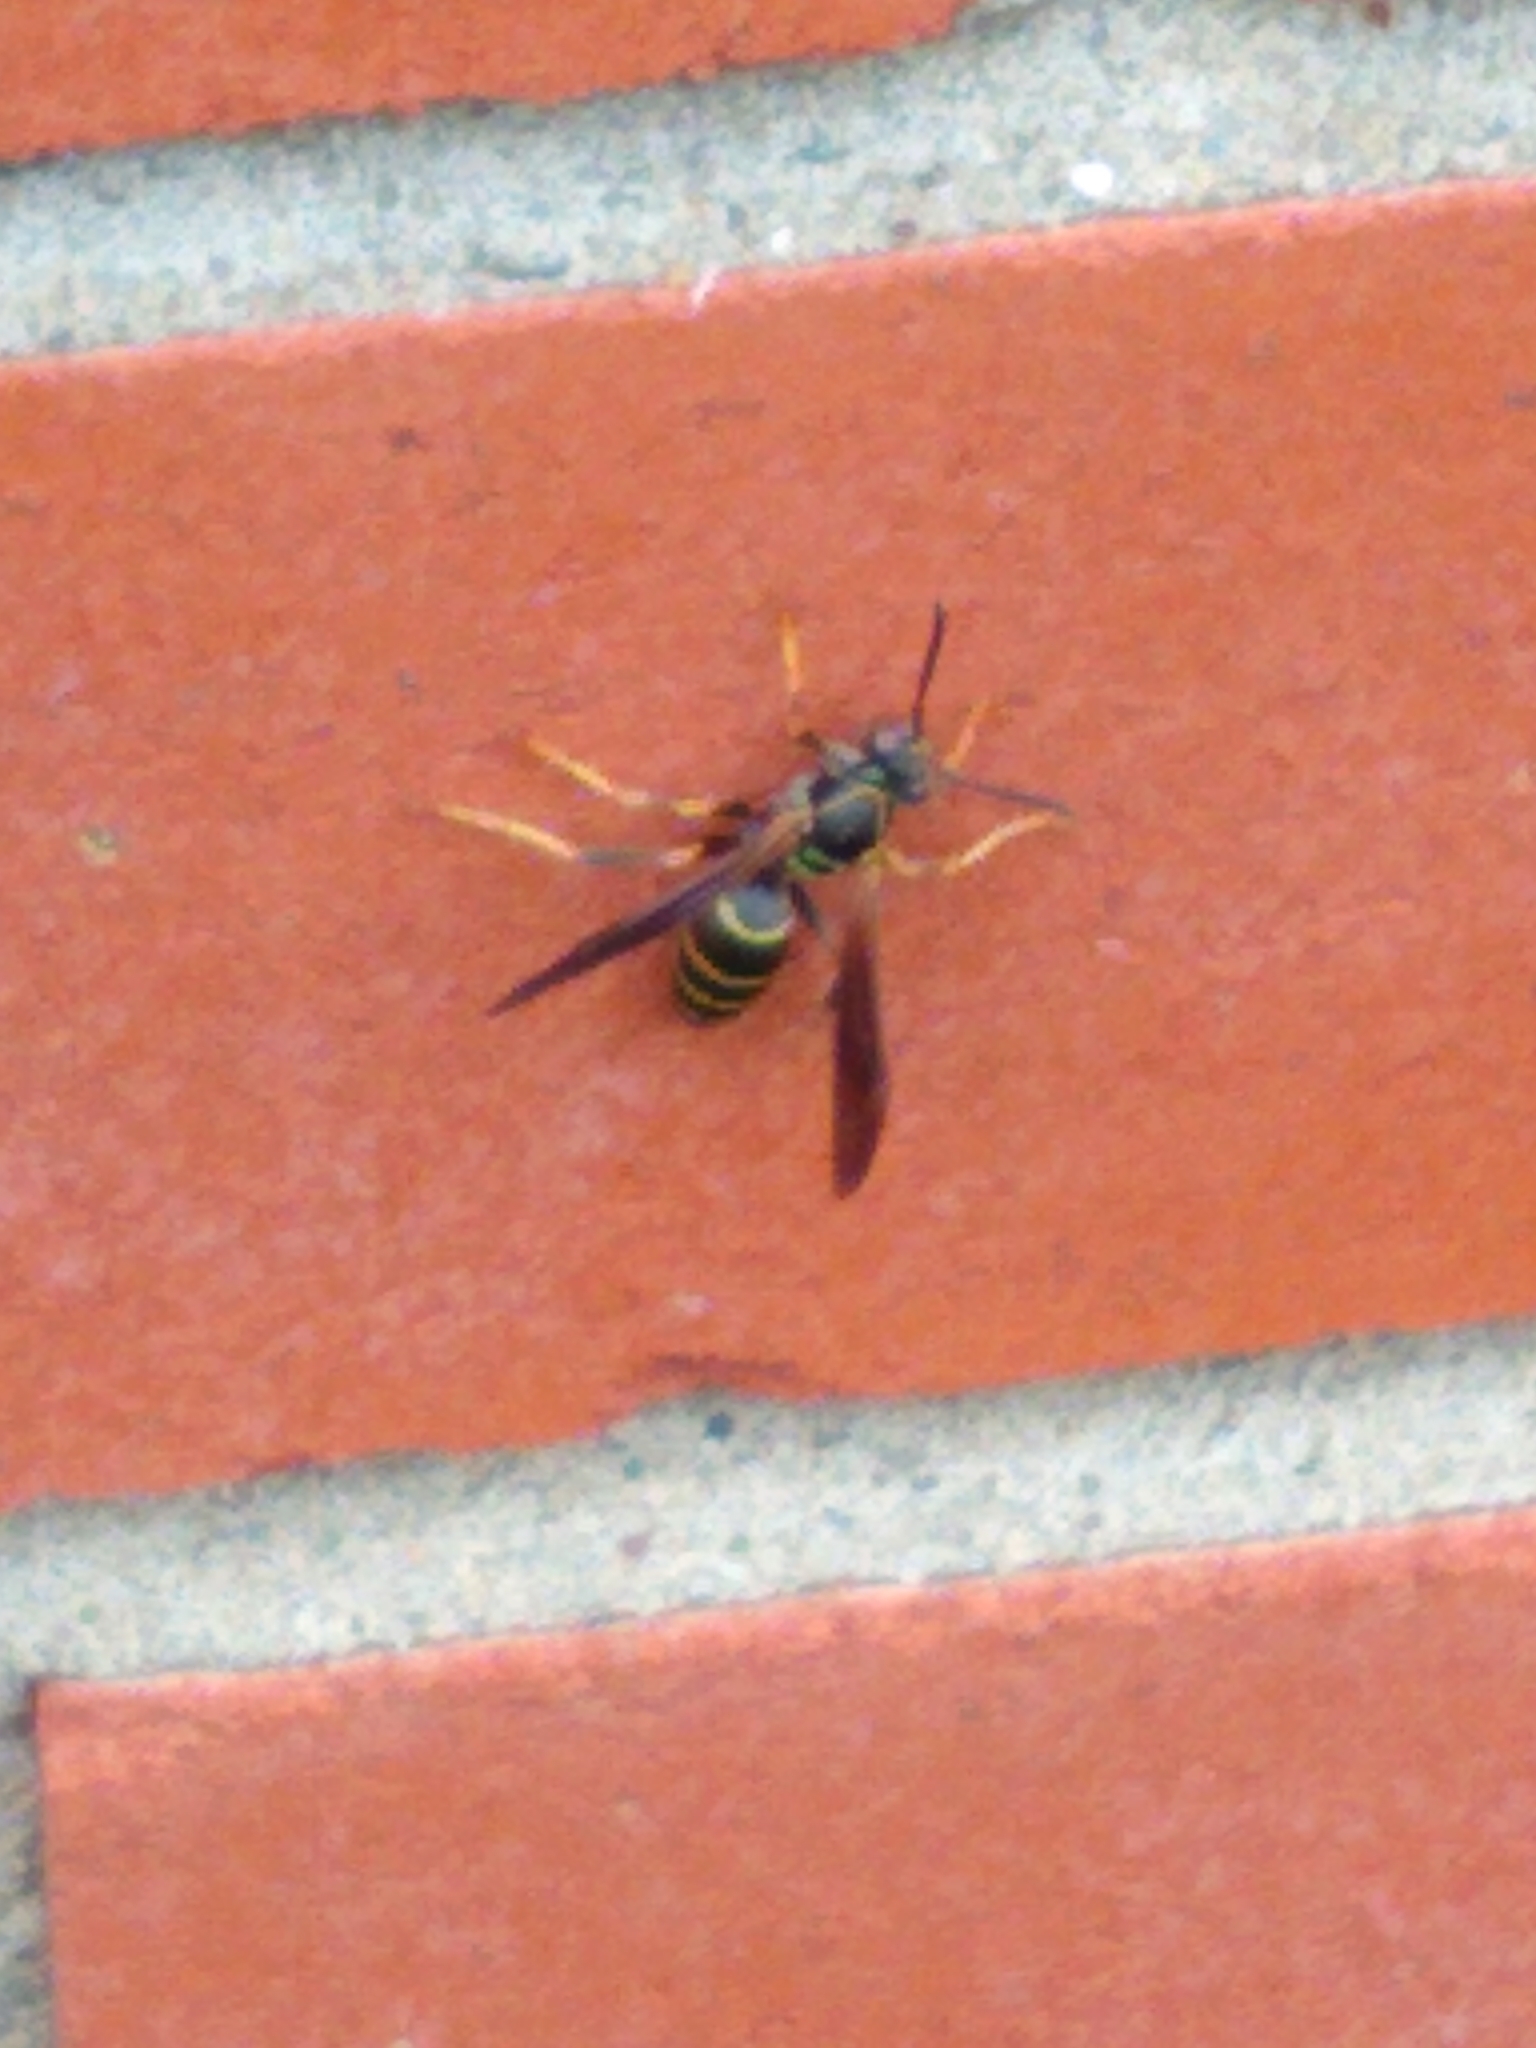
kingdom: Animalia
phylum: Arthropoda
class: Insecta
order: Hymenoptera
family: Eumenidae
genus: Polistes
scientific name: Polistes fuscatus
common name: Dark paper wasp
